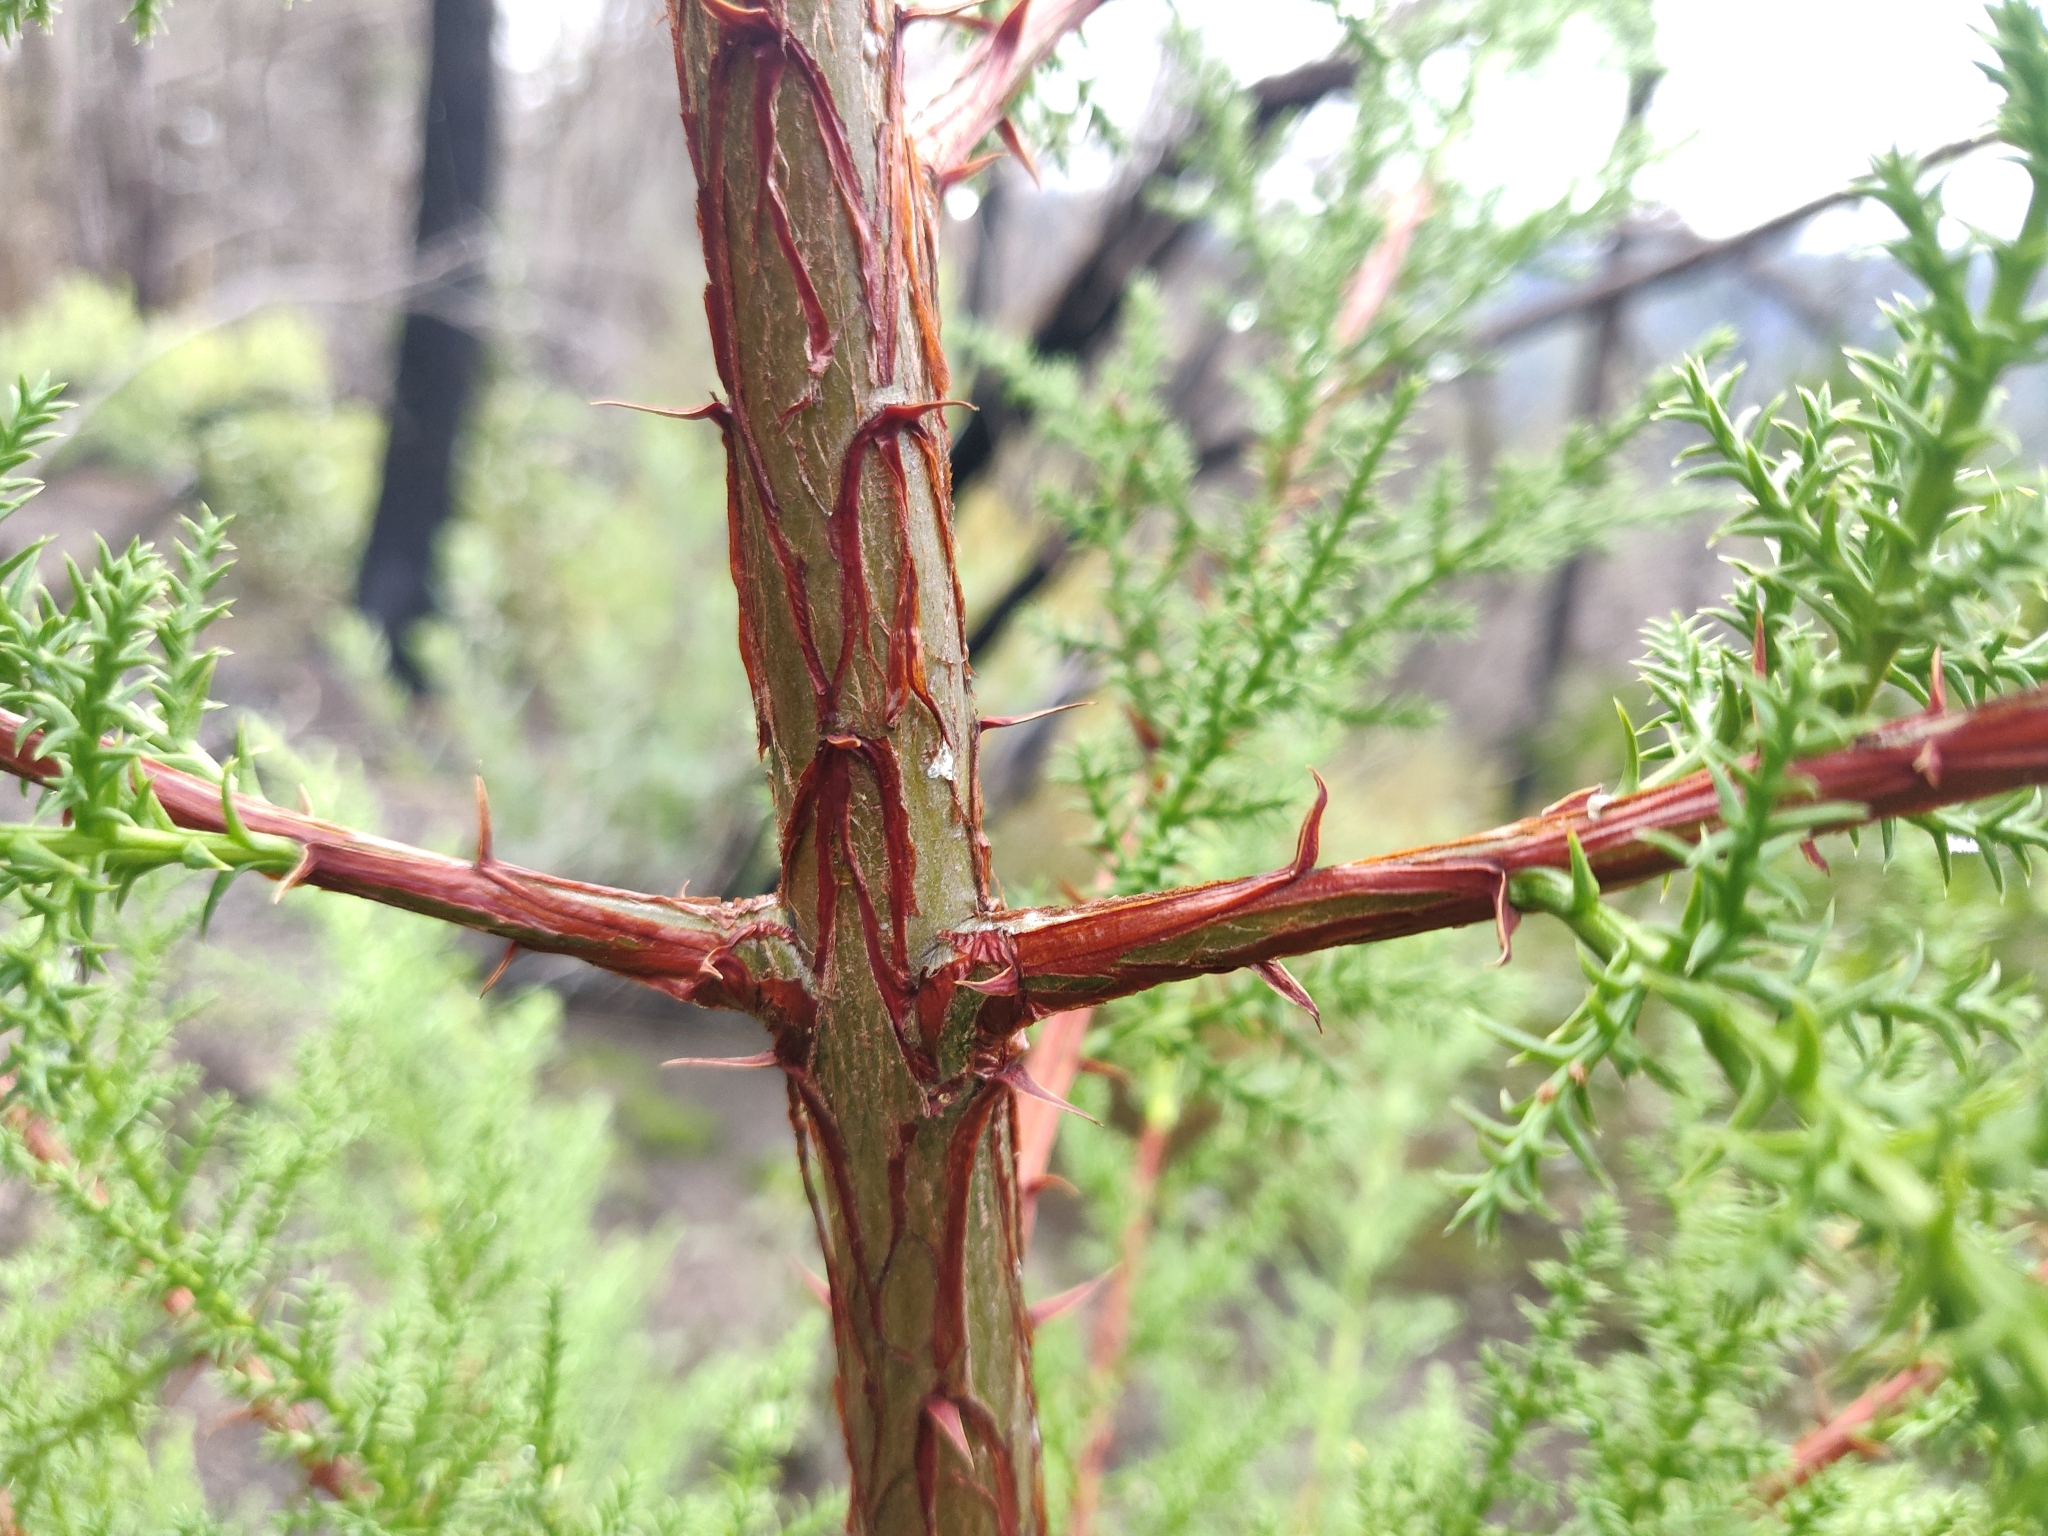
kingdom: Plantae
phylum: Tracheophyta
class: Pinopsida
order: Pinales
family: Cupressaceae
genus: Cupressus
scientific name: Cupressus goveniana
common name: Gowen cypress
